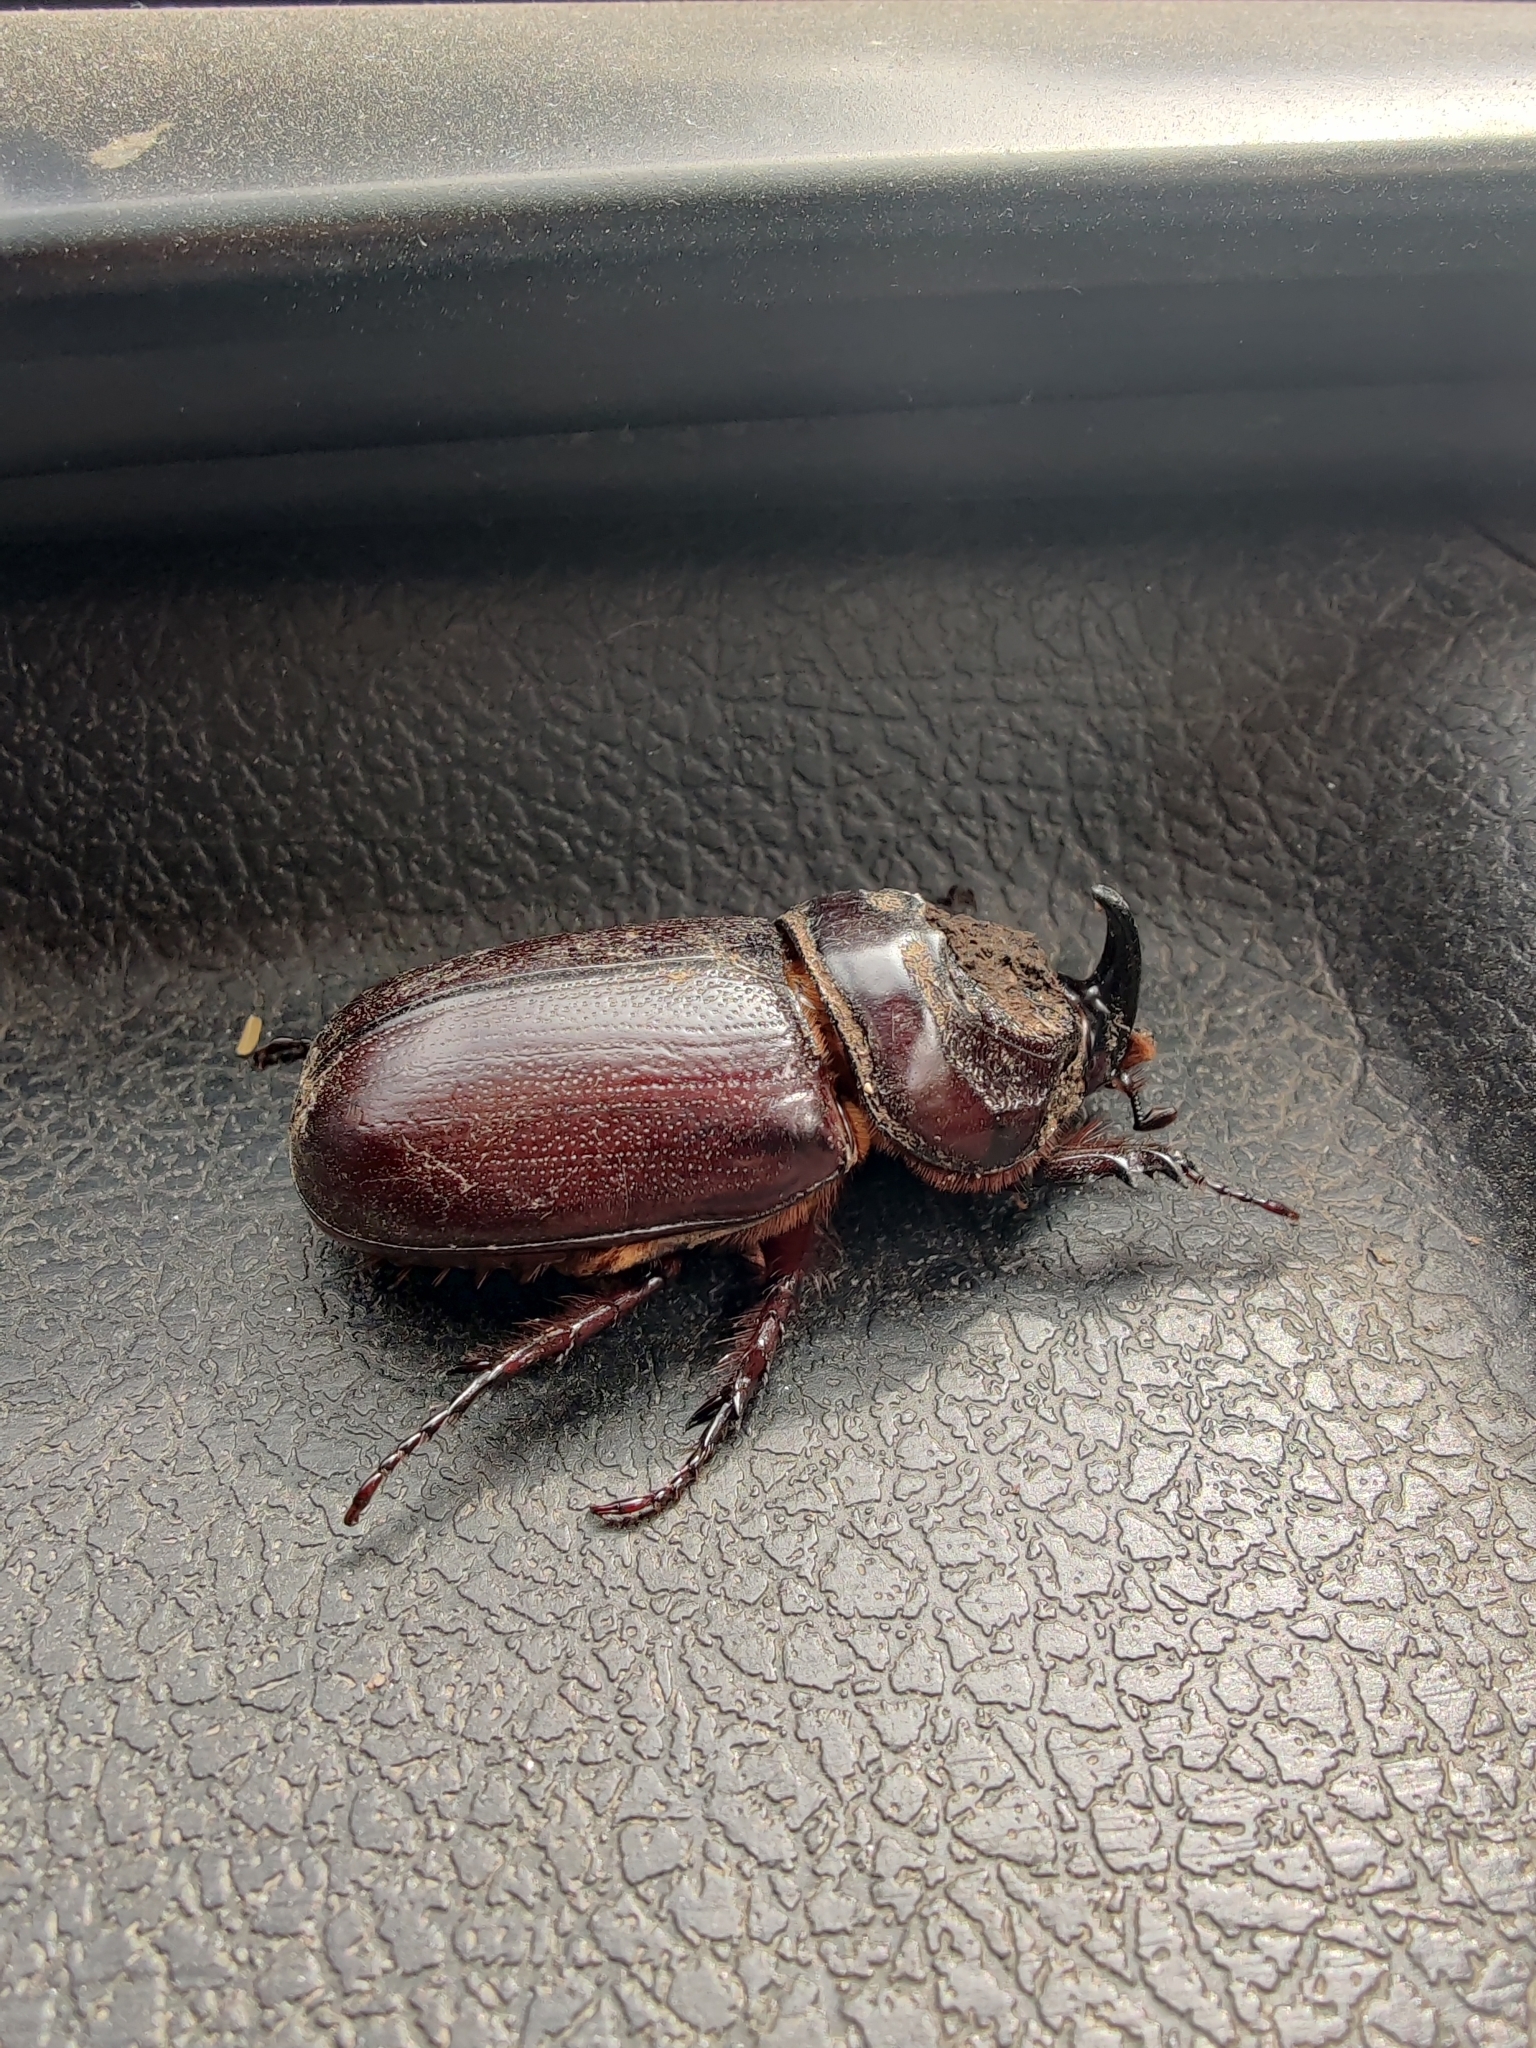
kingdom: Animalia
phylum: Arthropoda
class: Insecta
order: Coleoptera
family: Scarabaeidae
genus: Oryctes
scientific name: Oryctes rhinoceros
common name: Coconut rhinoceros beetle
